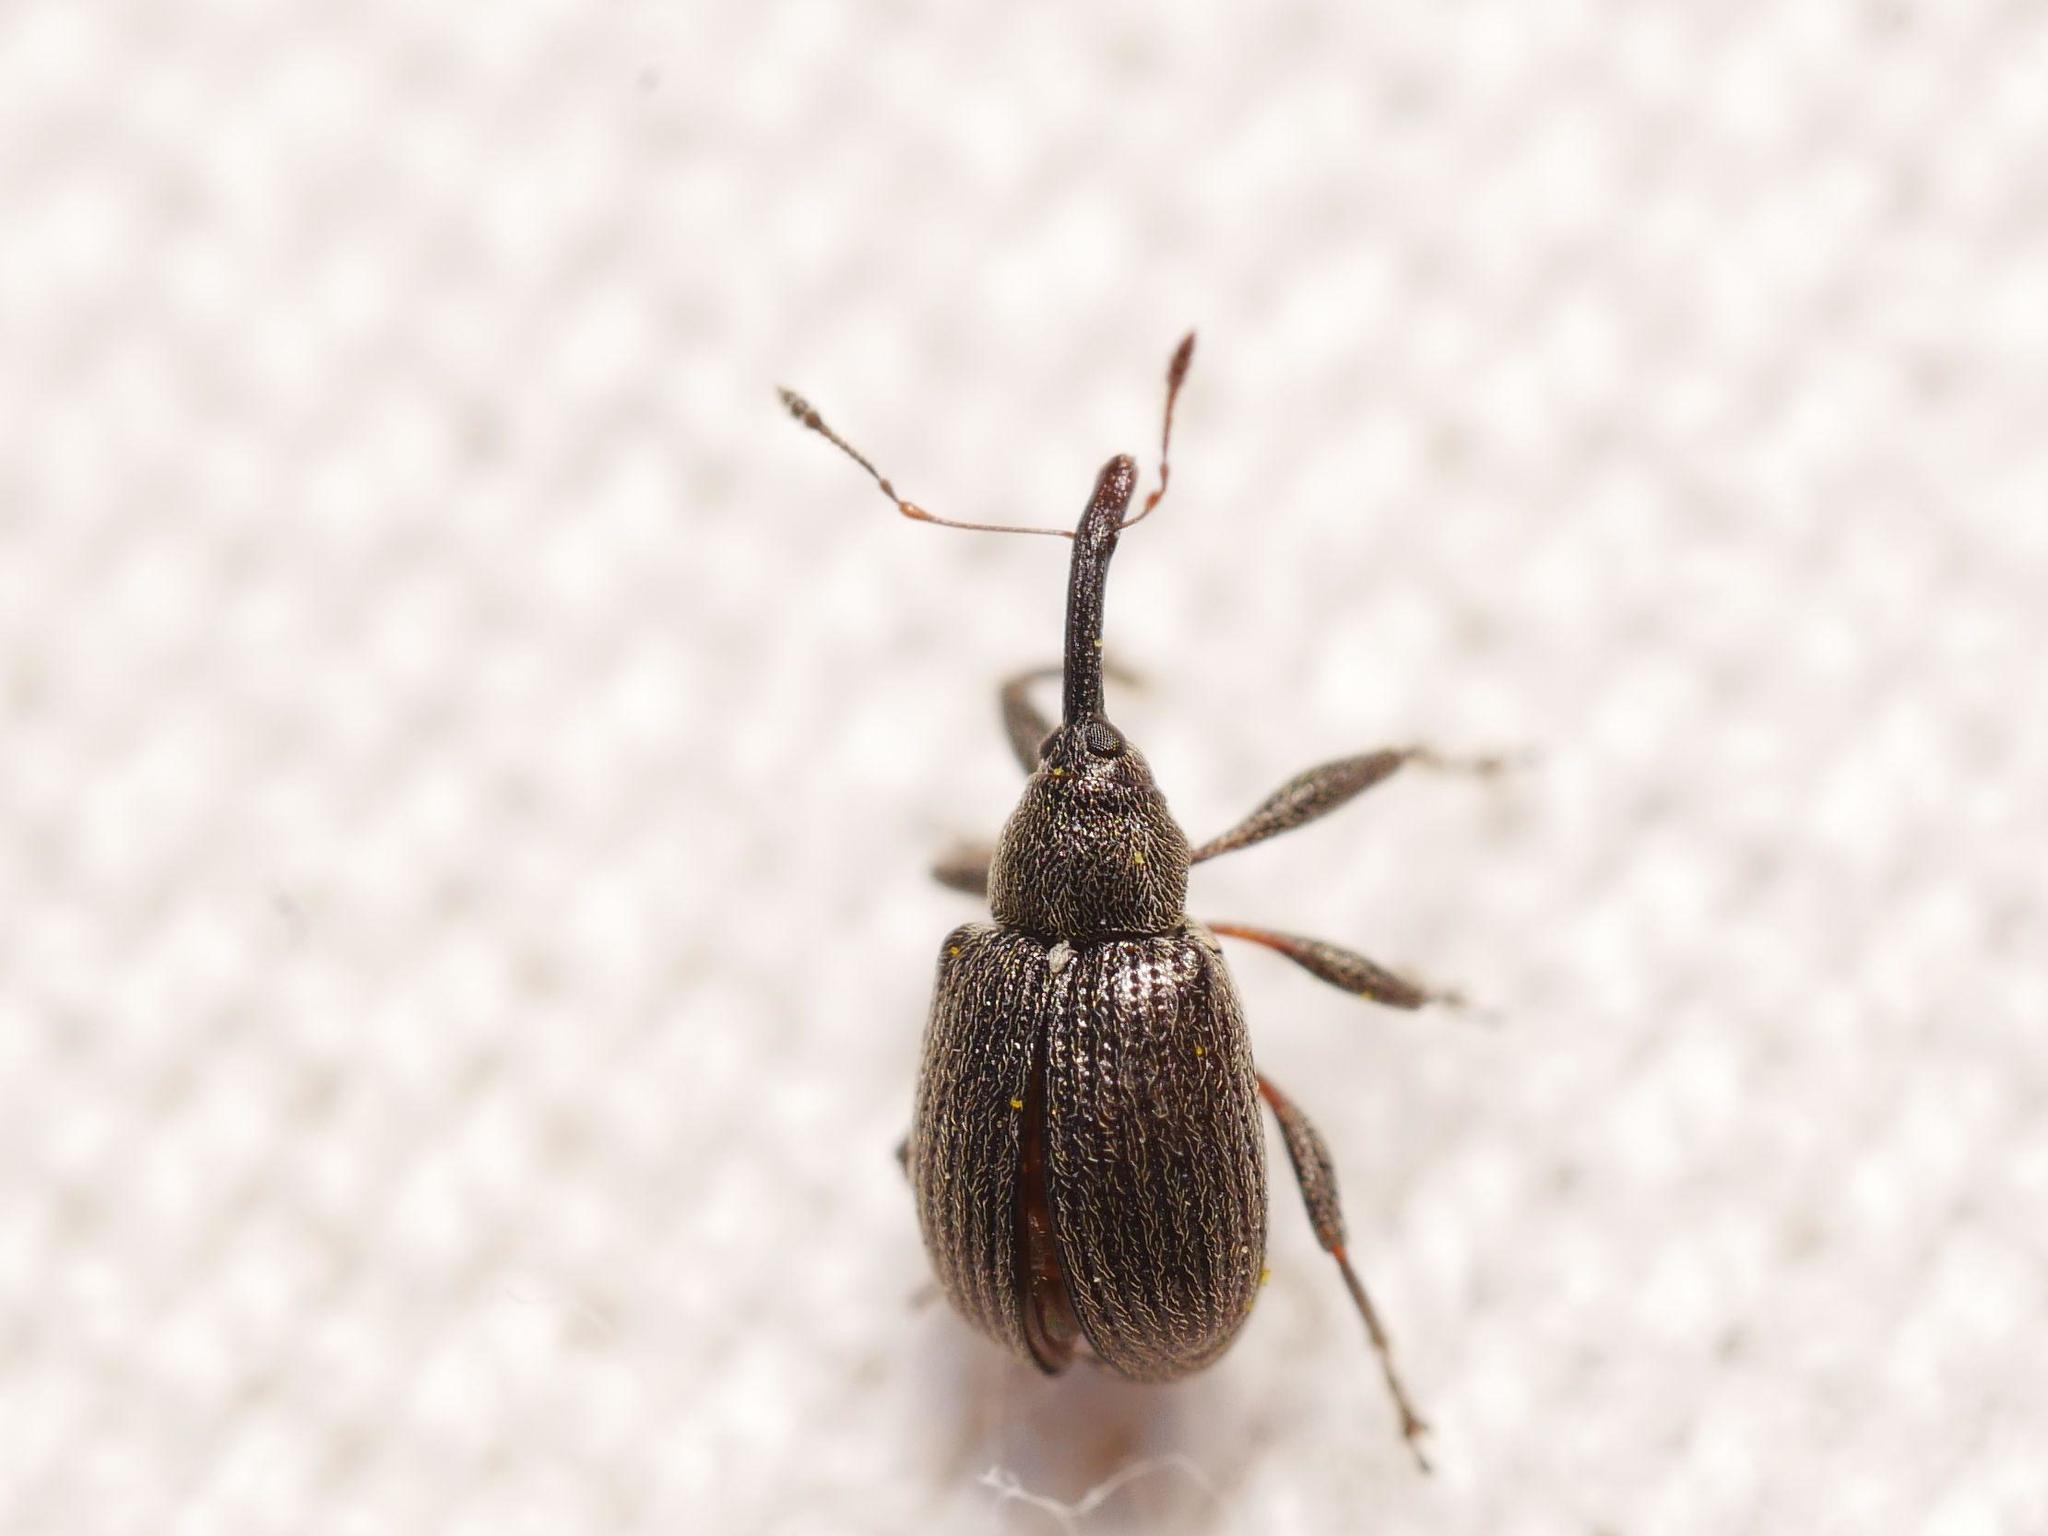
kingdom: Animalia
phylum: Arthropoda
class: Insecta
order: Coleoptera
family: Curculionidae
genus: Anthonomus
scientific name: Anthonomus rubi
